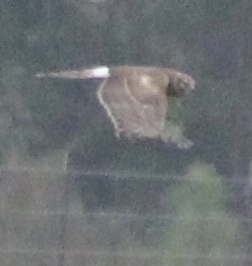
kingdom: Animalia
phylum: Chordata
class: Aves
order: Accipitriformes
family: Accipitridae
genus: Circus
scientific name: Circus cyaneus
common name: Hen harrier
